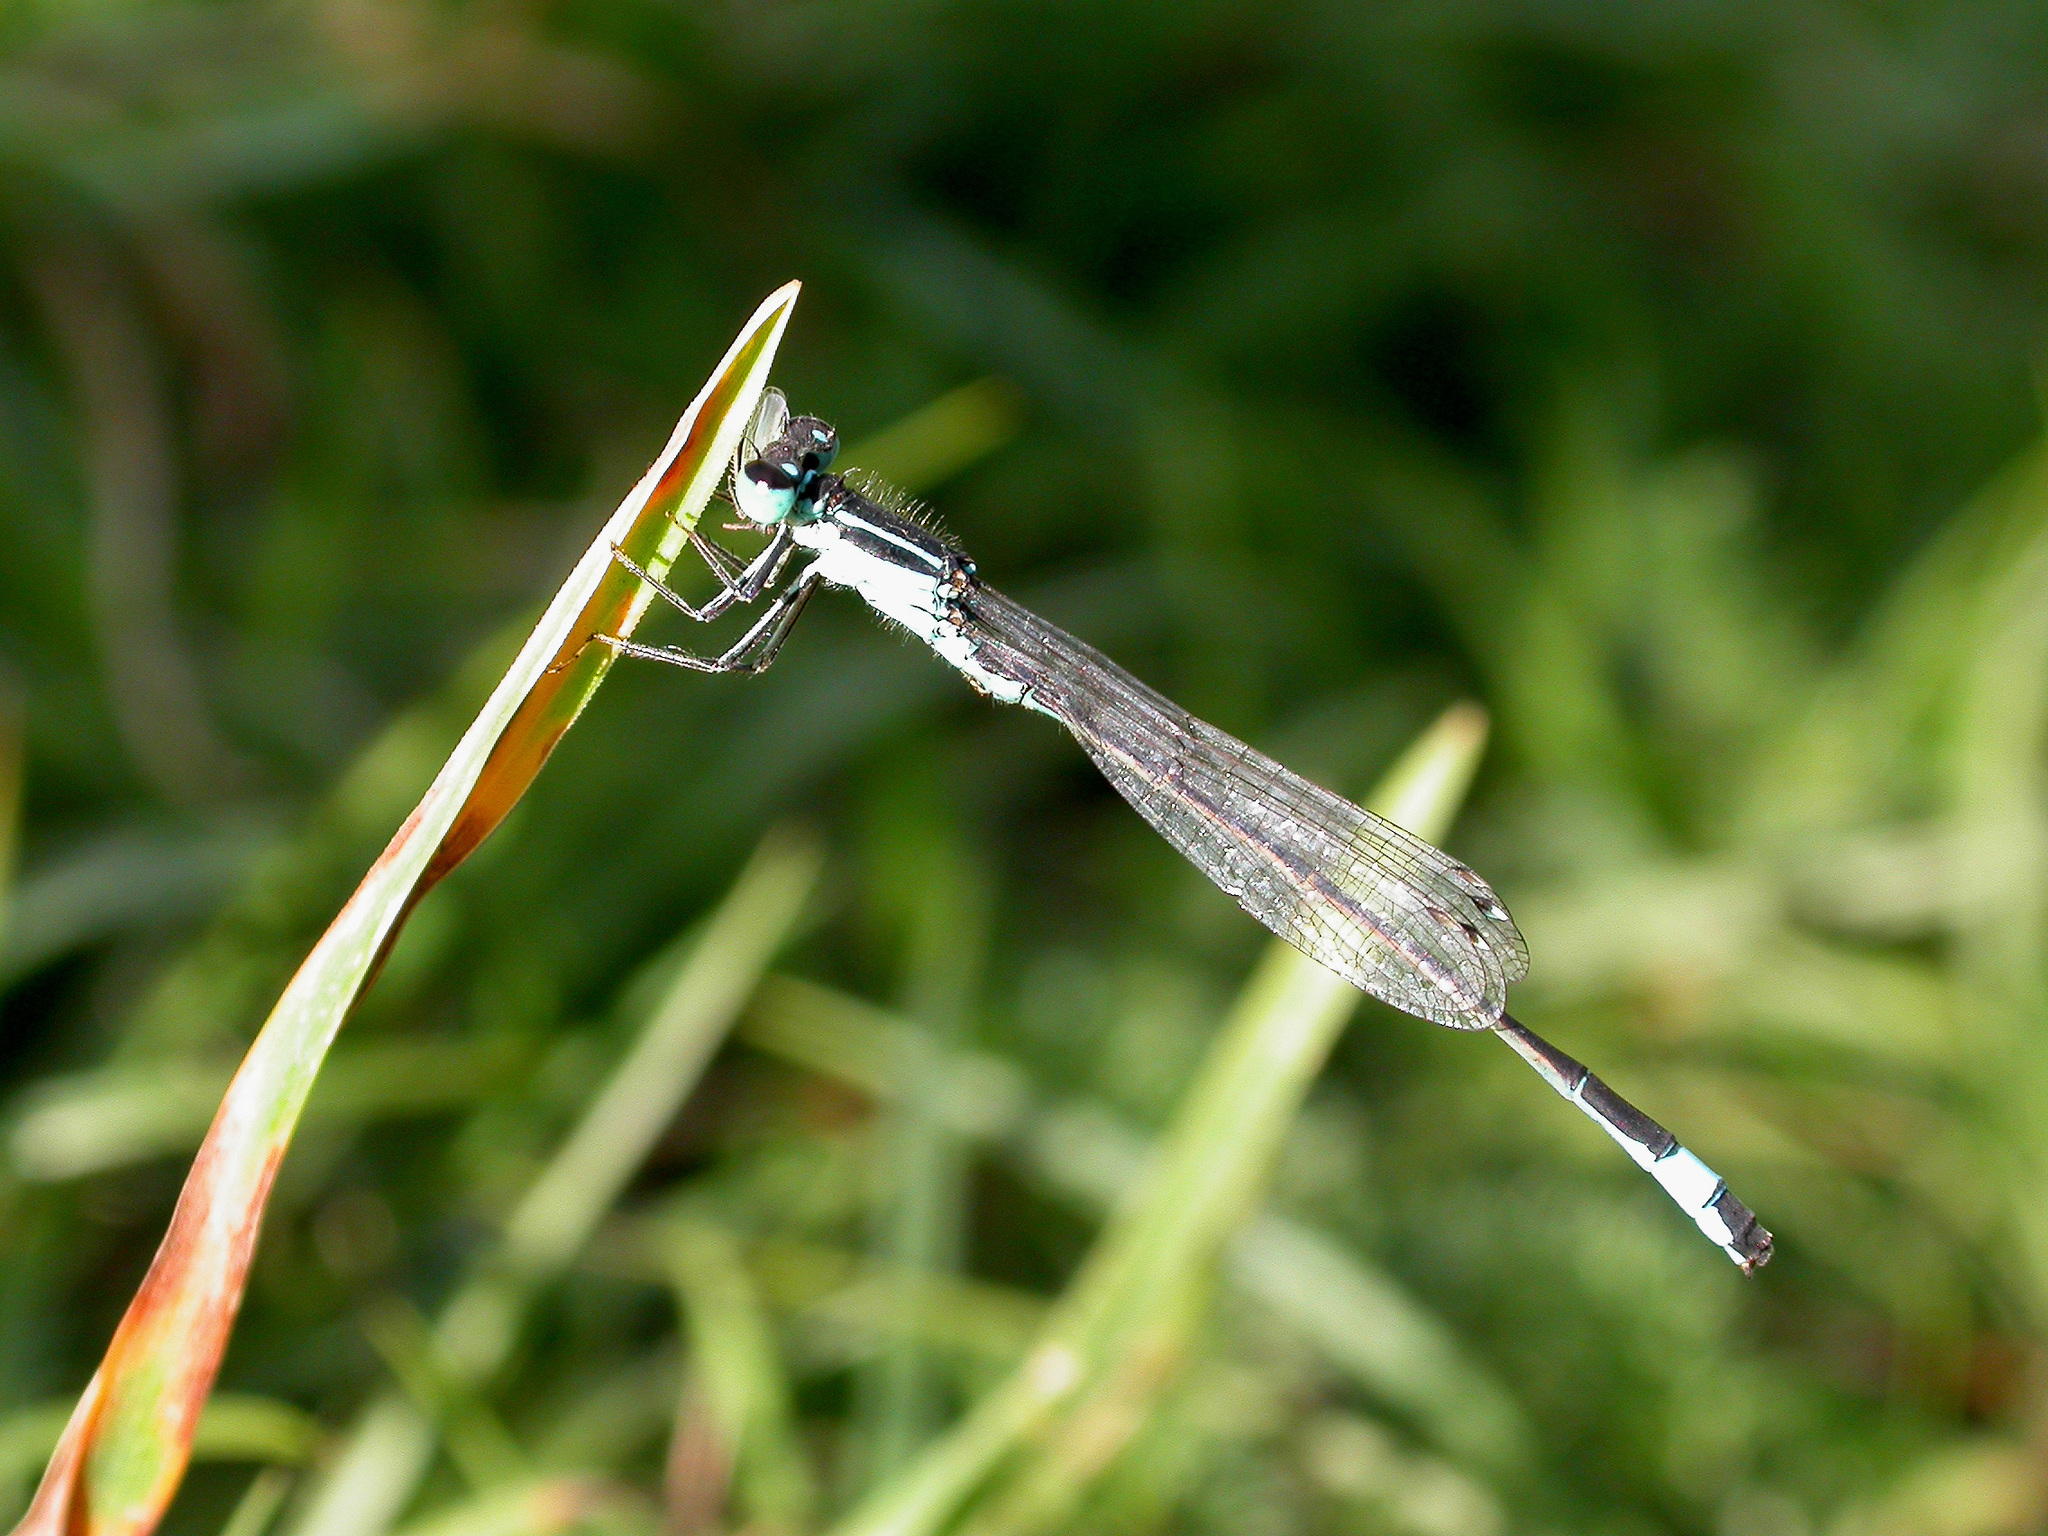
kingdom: Animalia
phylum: Arthropoda
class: Insecta
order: Odonata
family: Coenagrionidae
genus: Ischnura
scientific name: Ischnura elegans
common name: Blue-tailed damselfly
